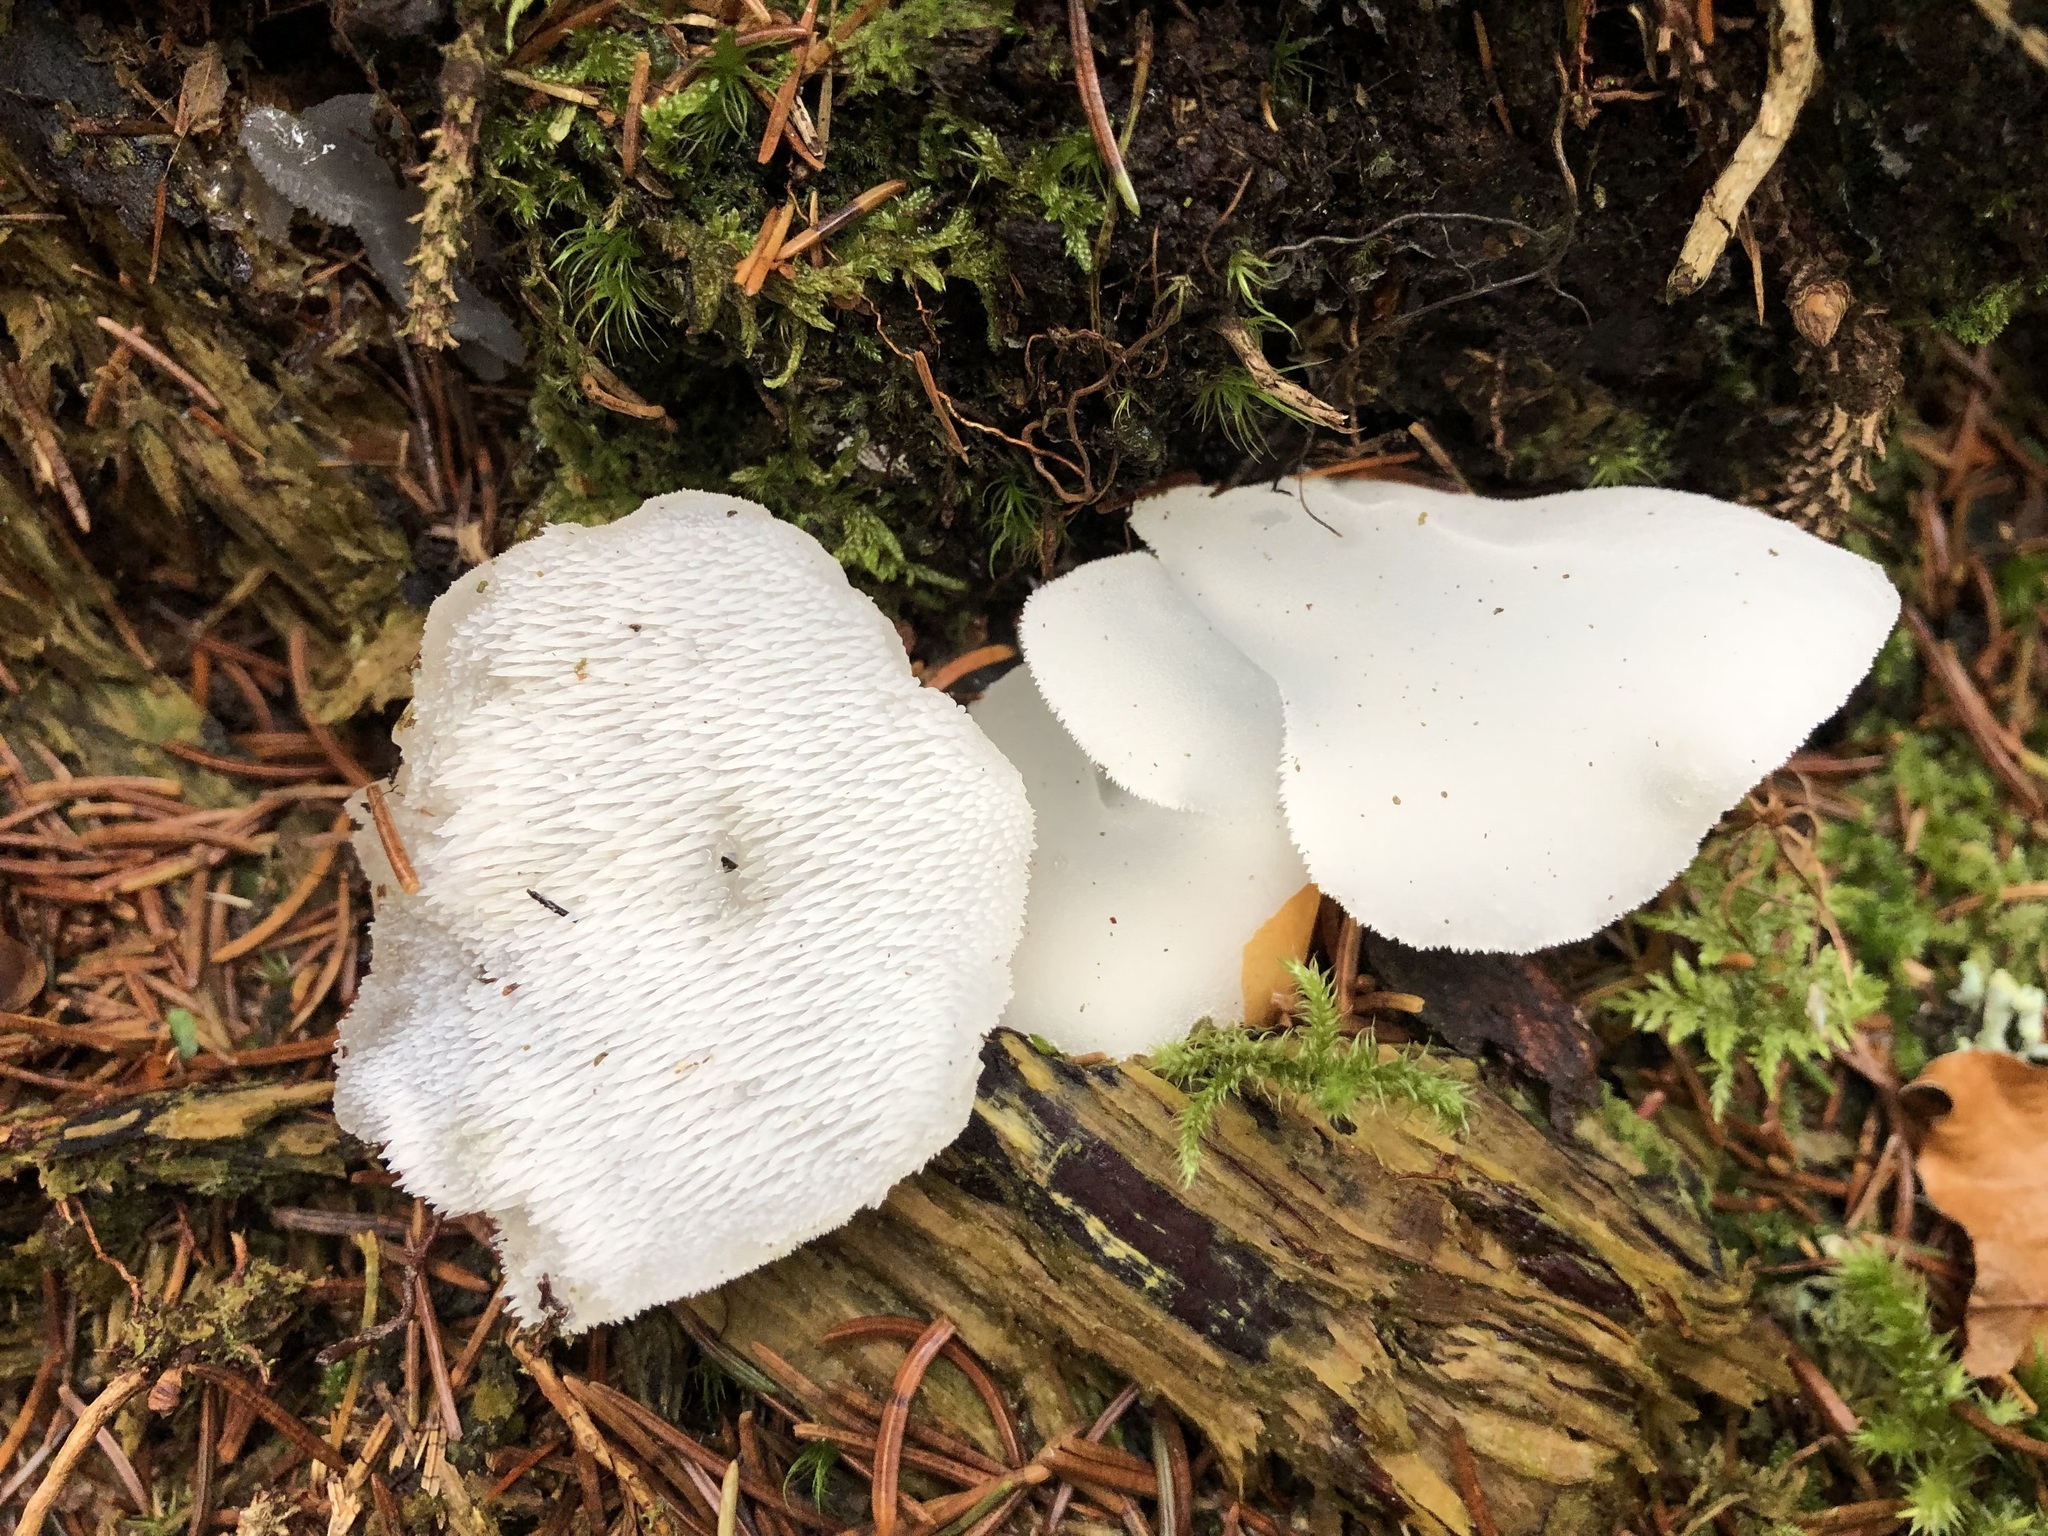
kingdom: Fungi
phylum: Basidiomycota
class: Agaricomycetes
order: Auriculariales
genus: Pseudohydnum
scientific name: Pseudohydnum gelatinosum
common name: Jelly tongue
